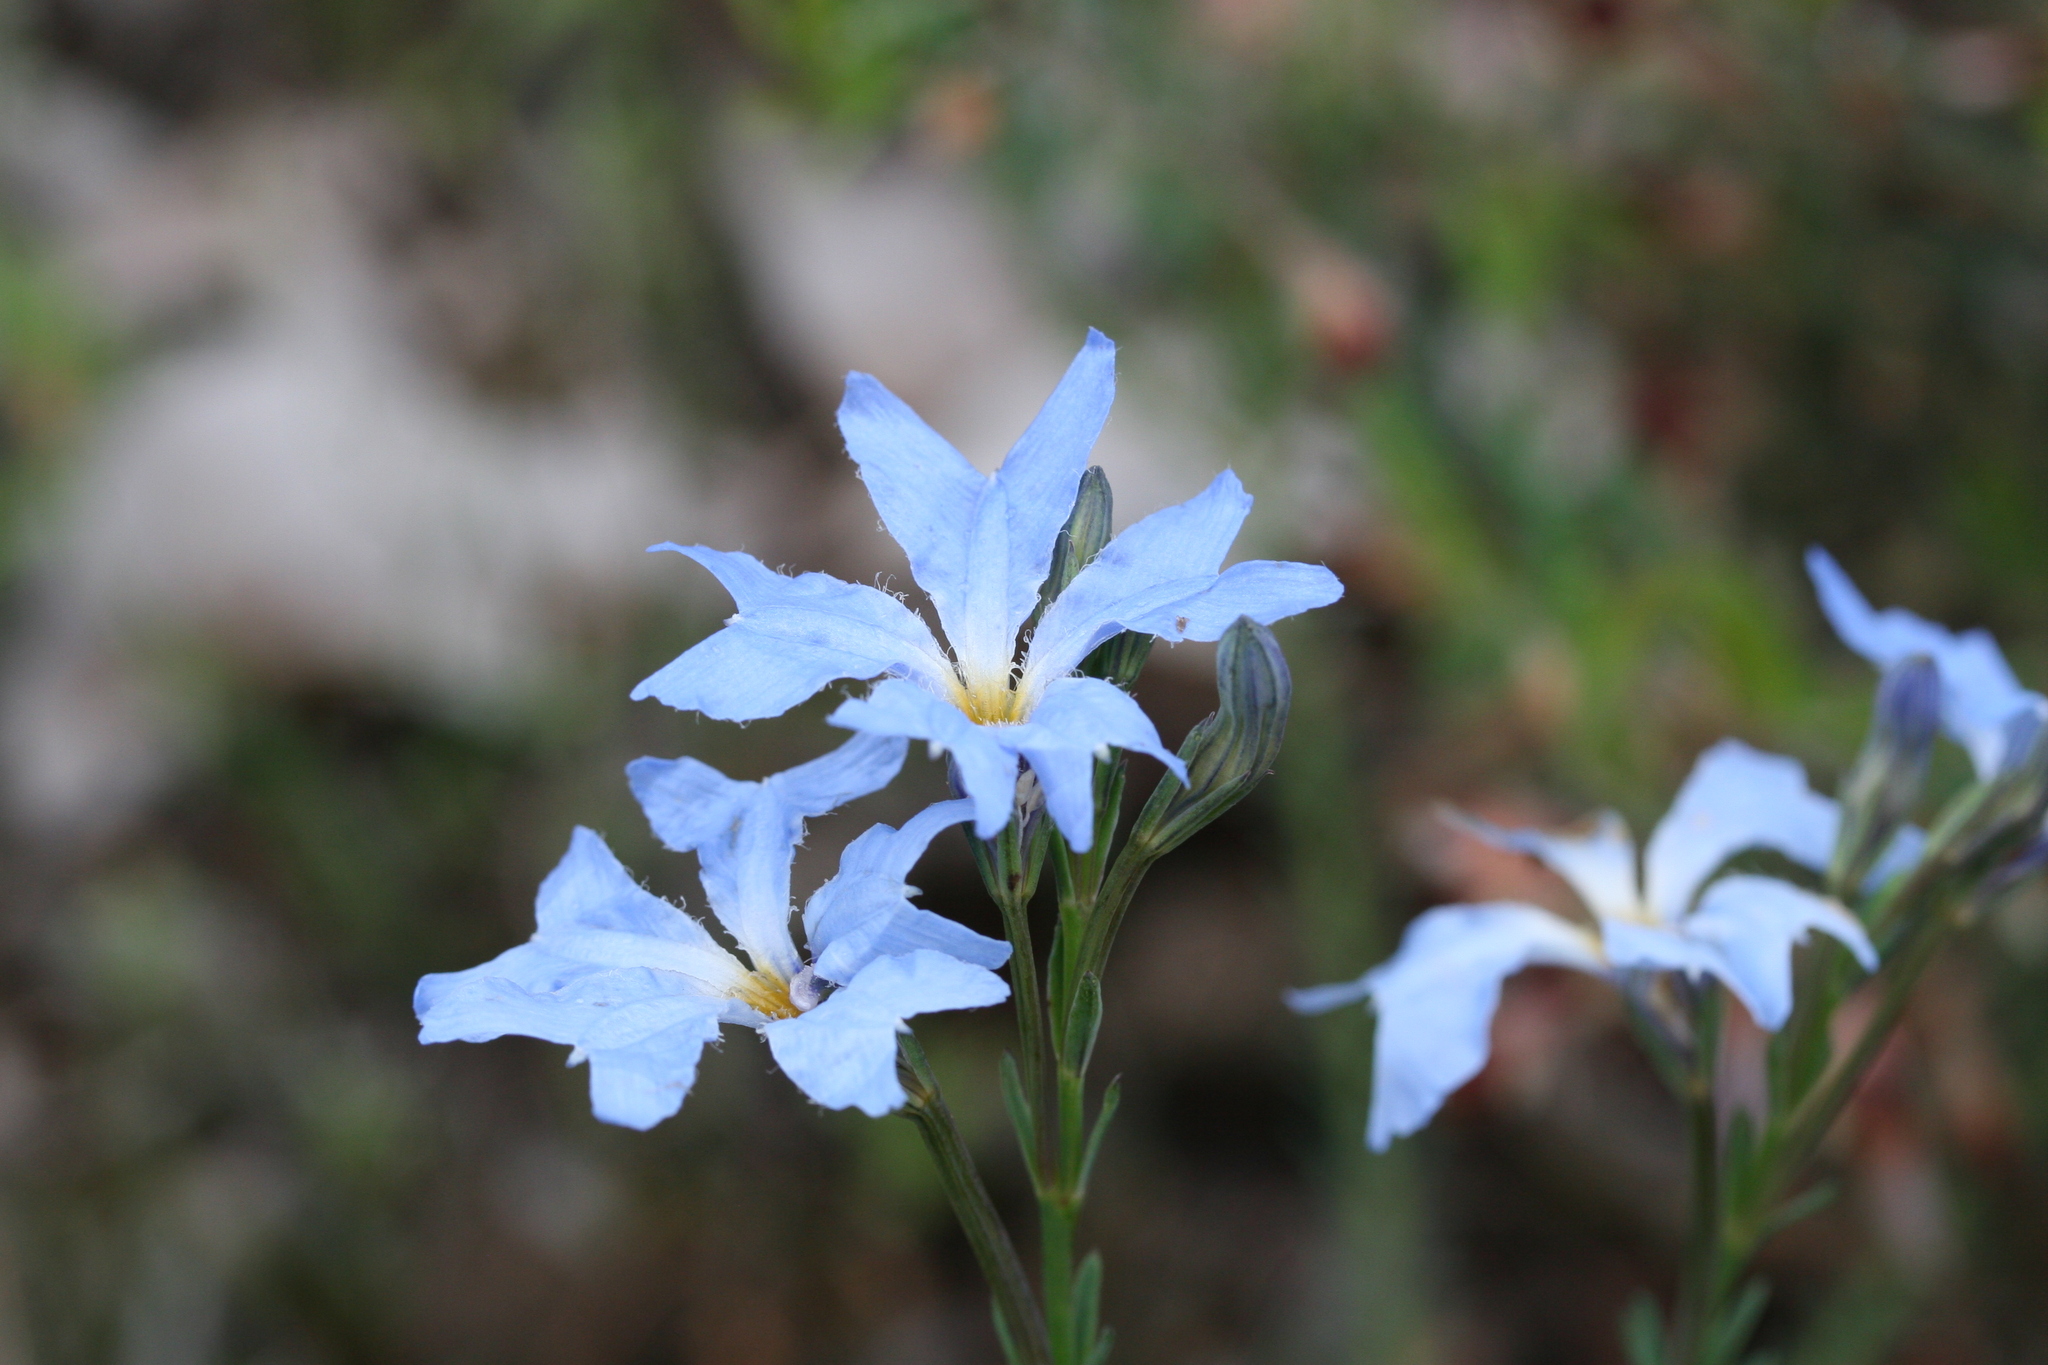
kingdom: Plantae
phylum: Tracheophyta
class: Magnoliopsida
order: Asterales
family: Goodeniaceae
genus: Lechenaultia
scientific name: Lechenaultia biloba
